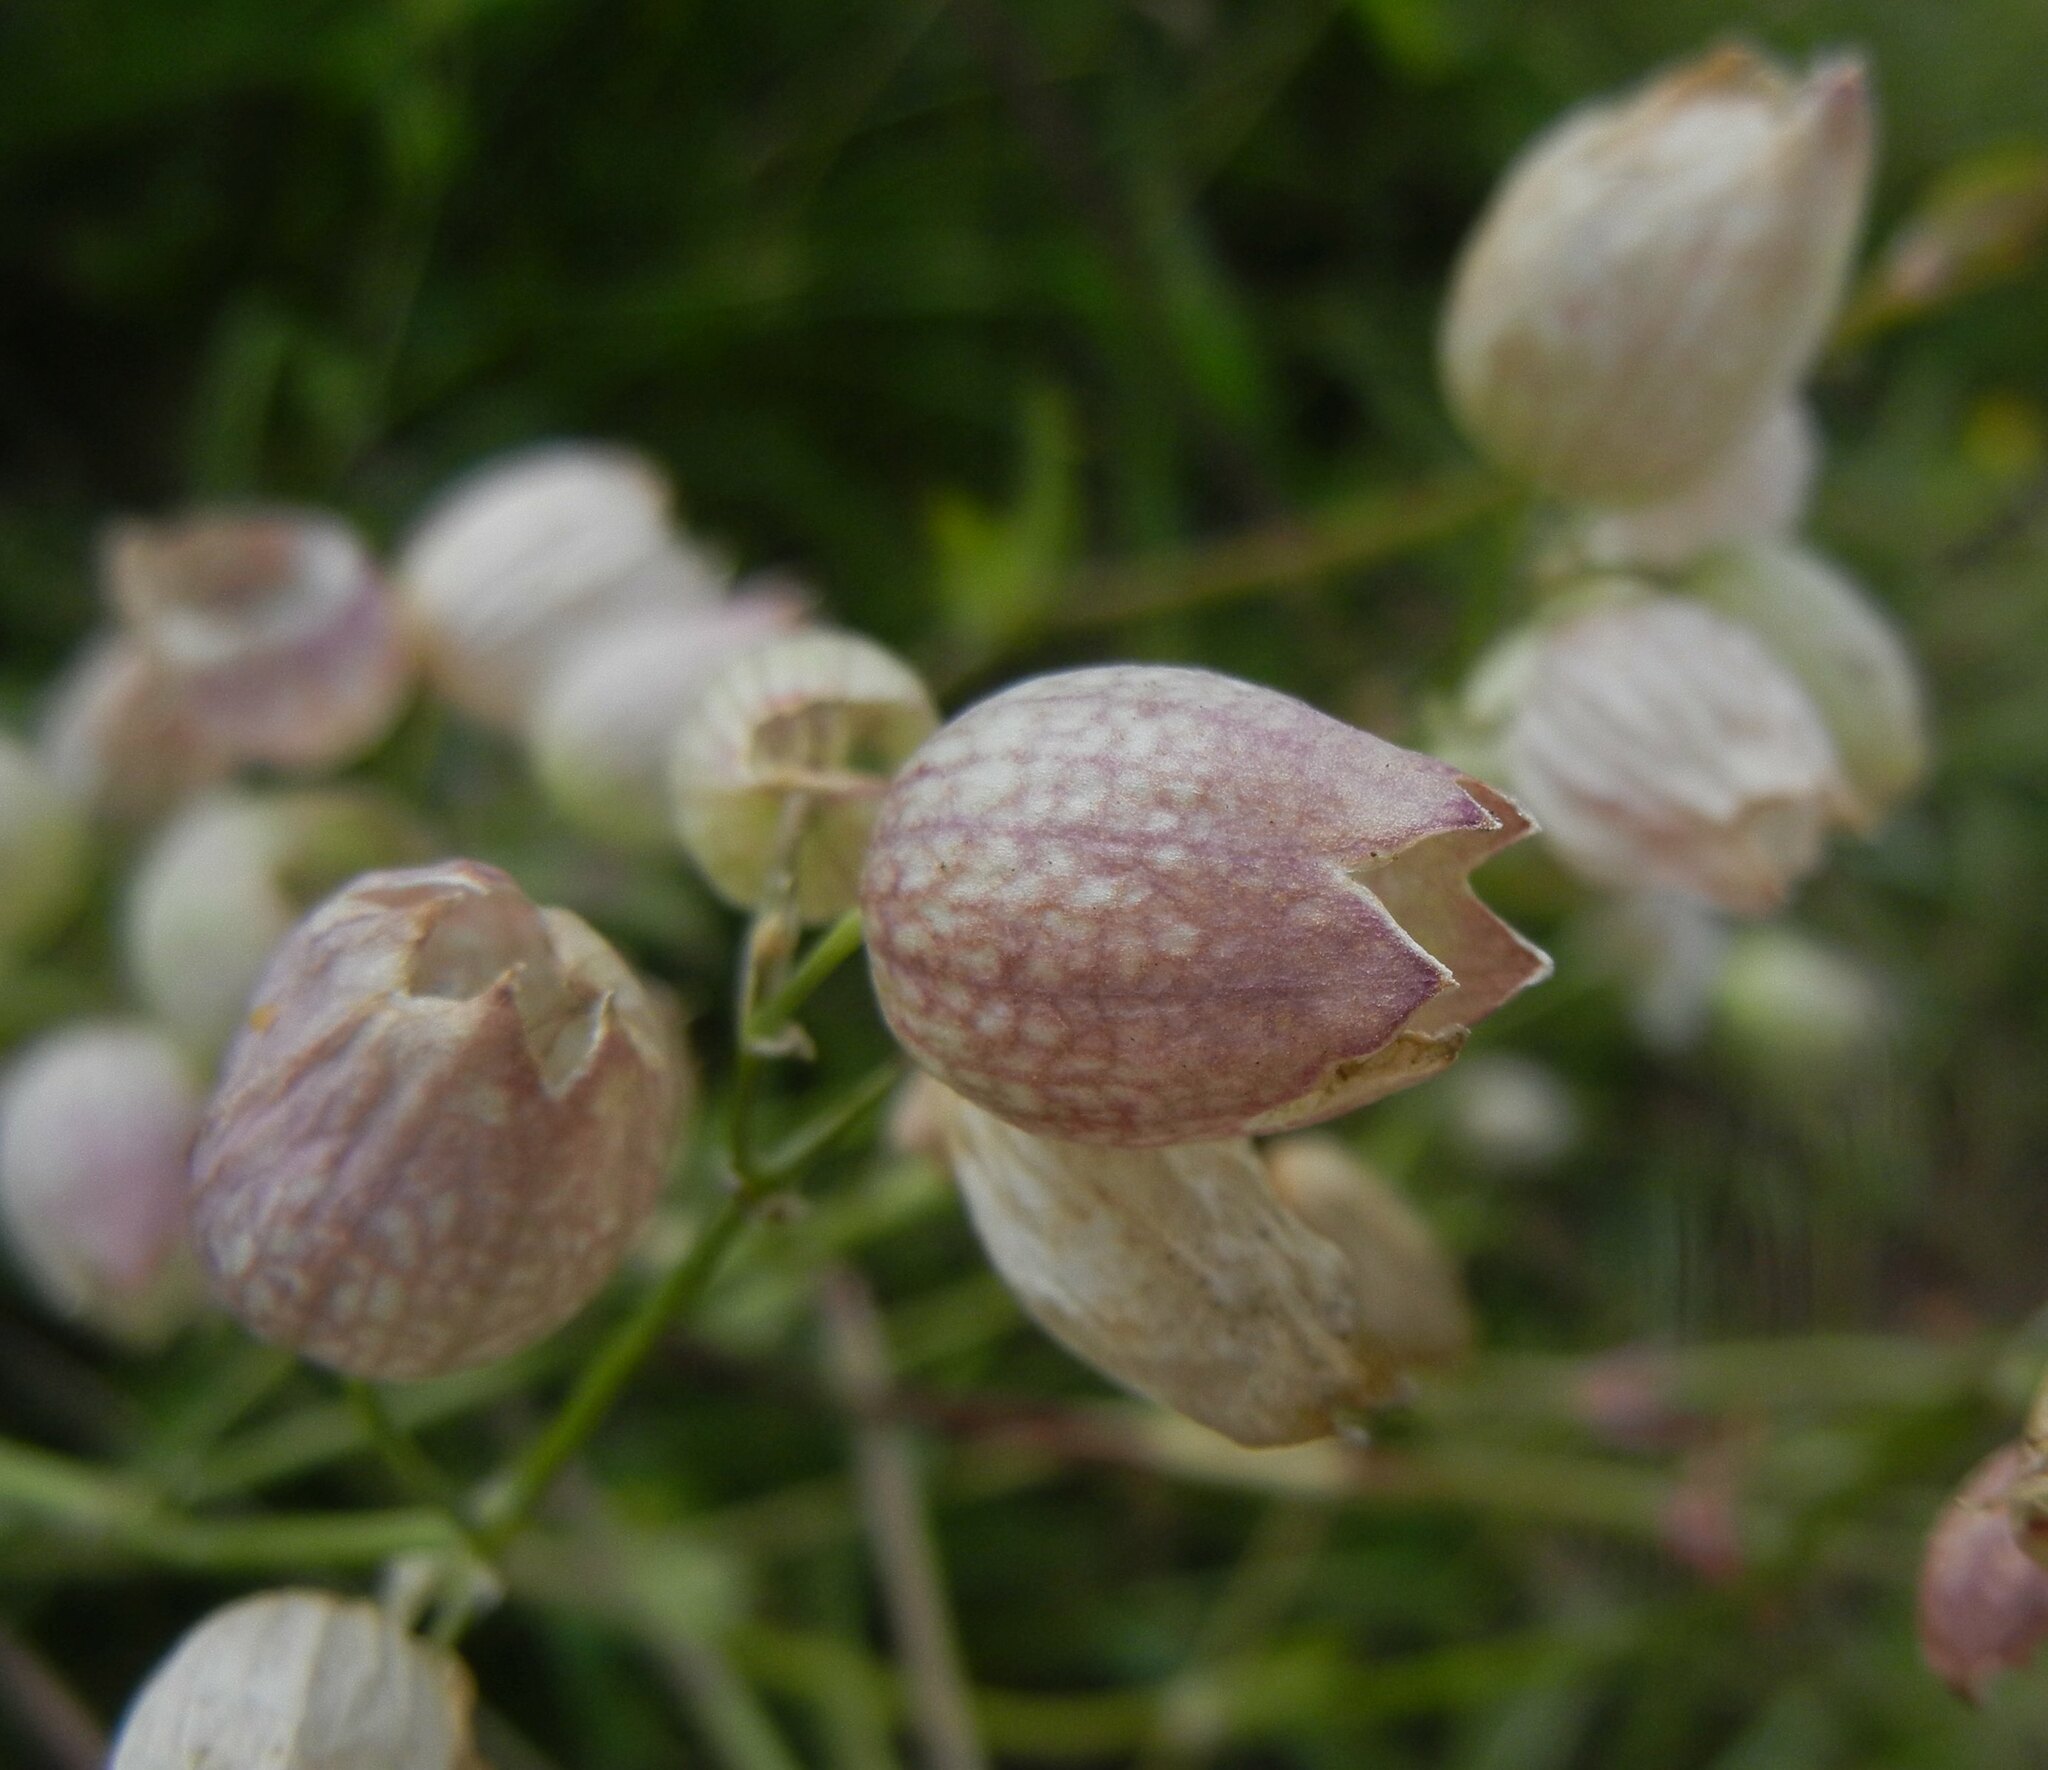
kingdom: Plantae
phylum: Tracheophyta
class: Magnoliopsida
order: Caryophyllales
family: Caryophyllaceae
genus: Silene
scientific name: Silene vulgaris
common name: Bladder campion
